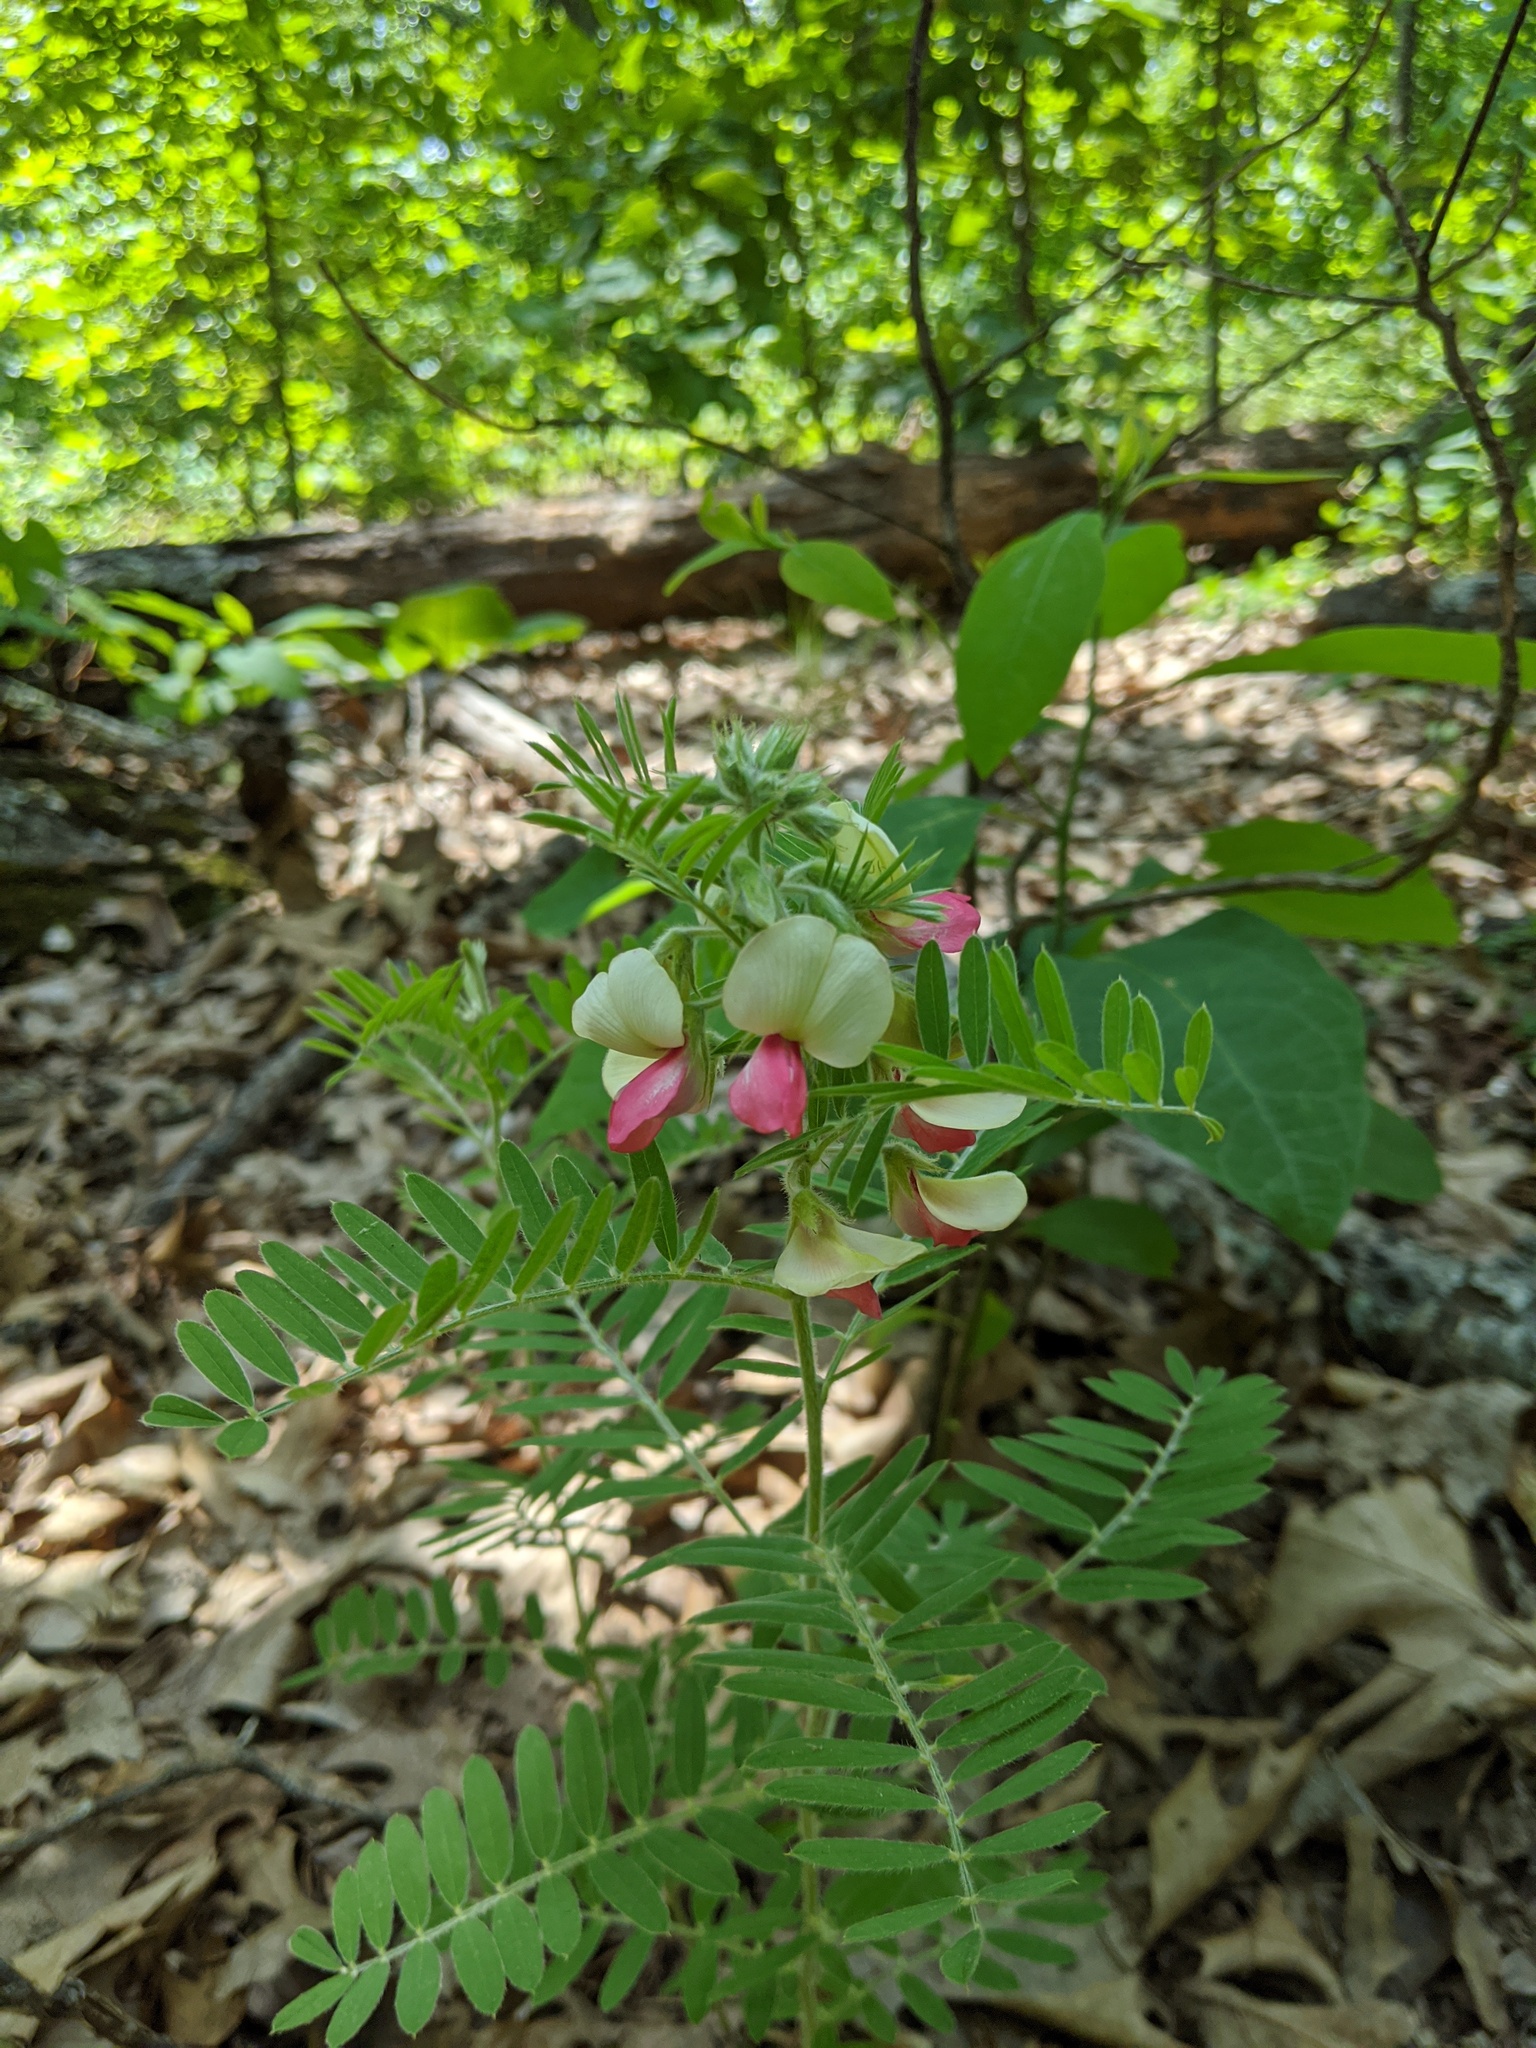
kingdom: Plantae
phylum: Tracheophyta
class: Magnoliopsida
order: Fabales
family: Fabaceae
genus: Tephrosia
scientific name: Tephrosia virginiana
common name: Rabbit-pea
